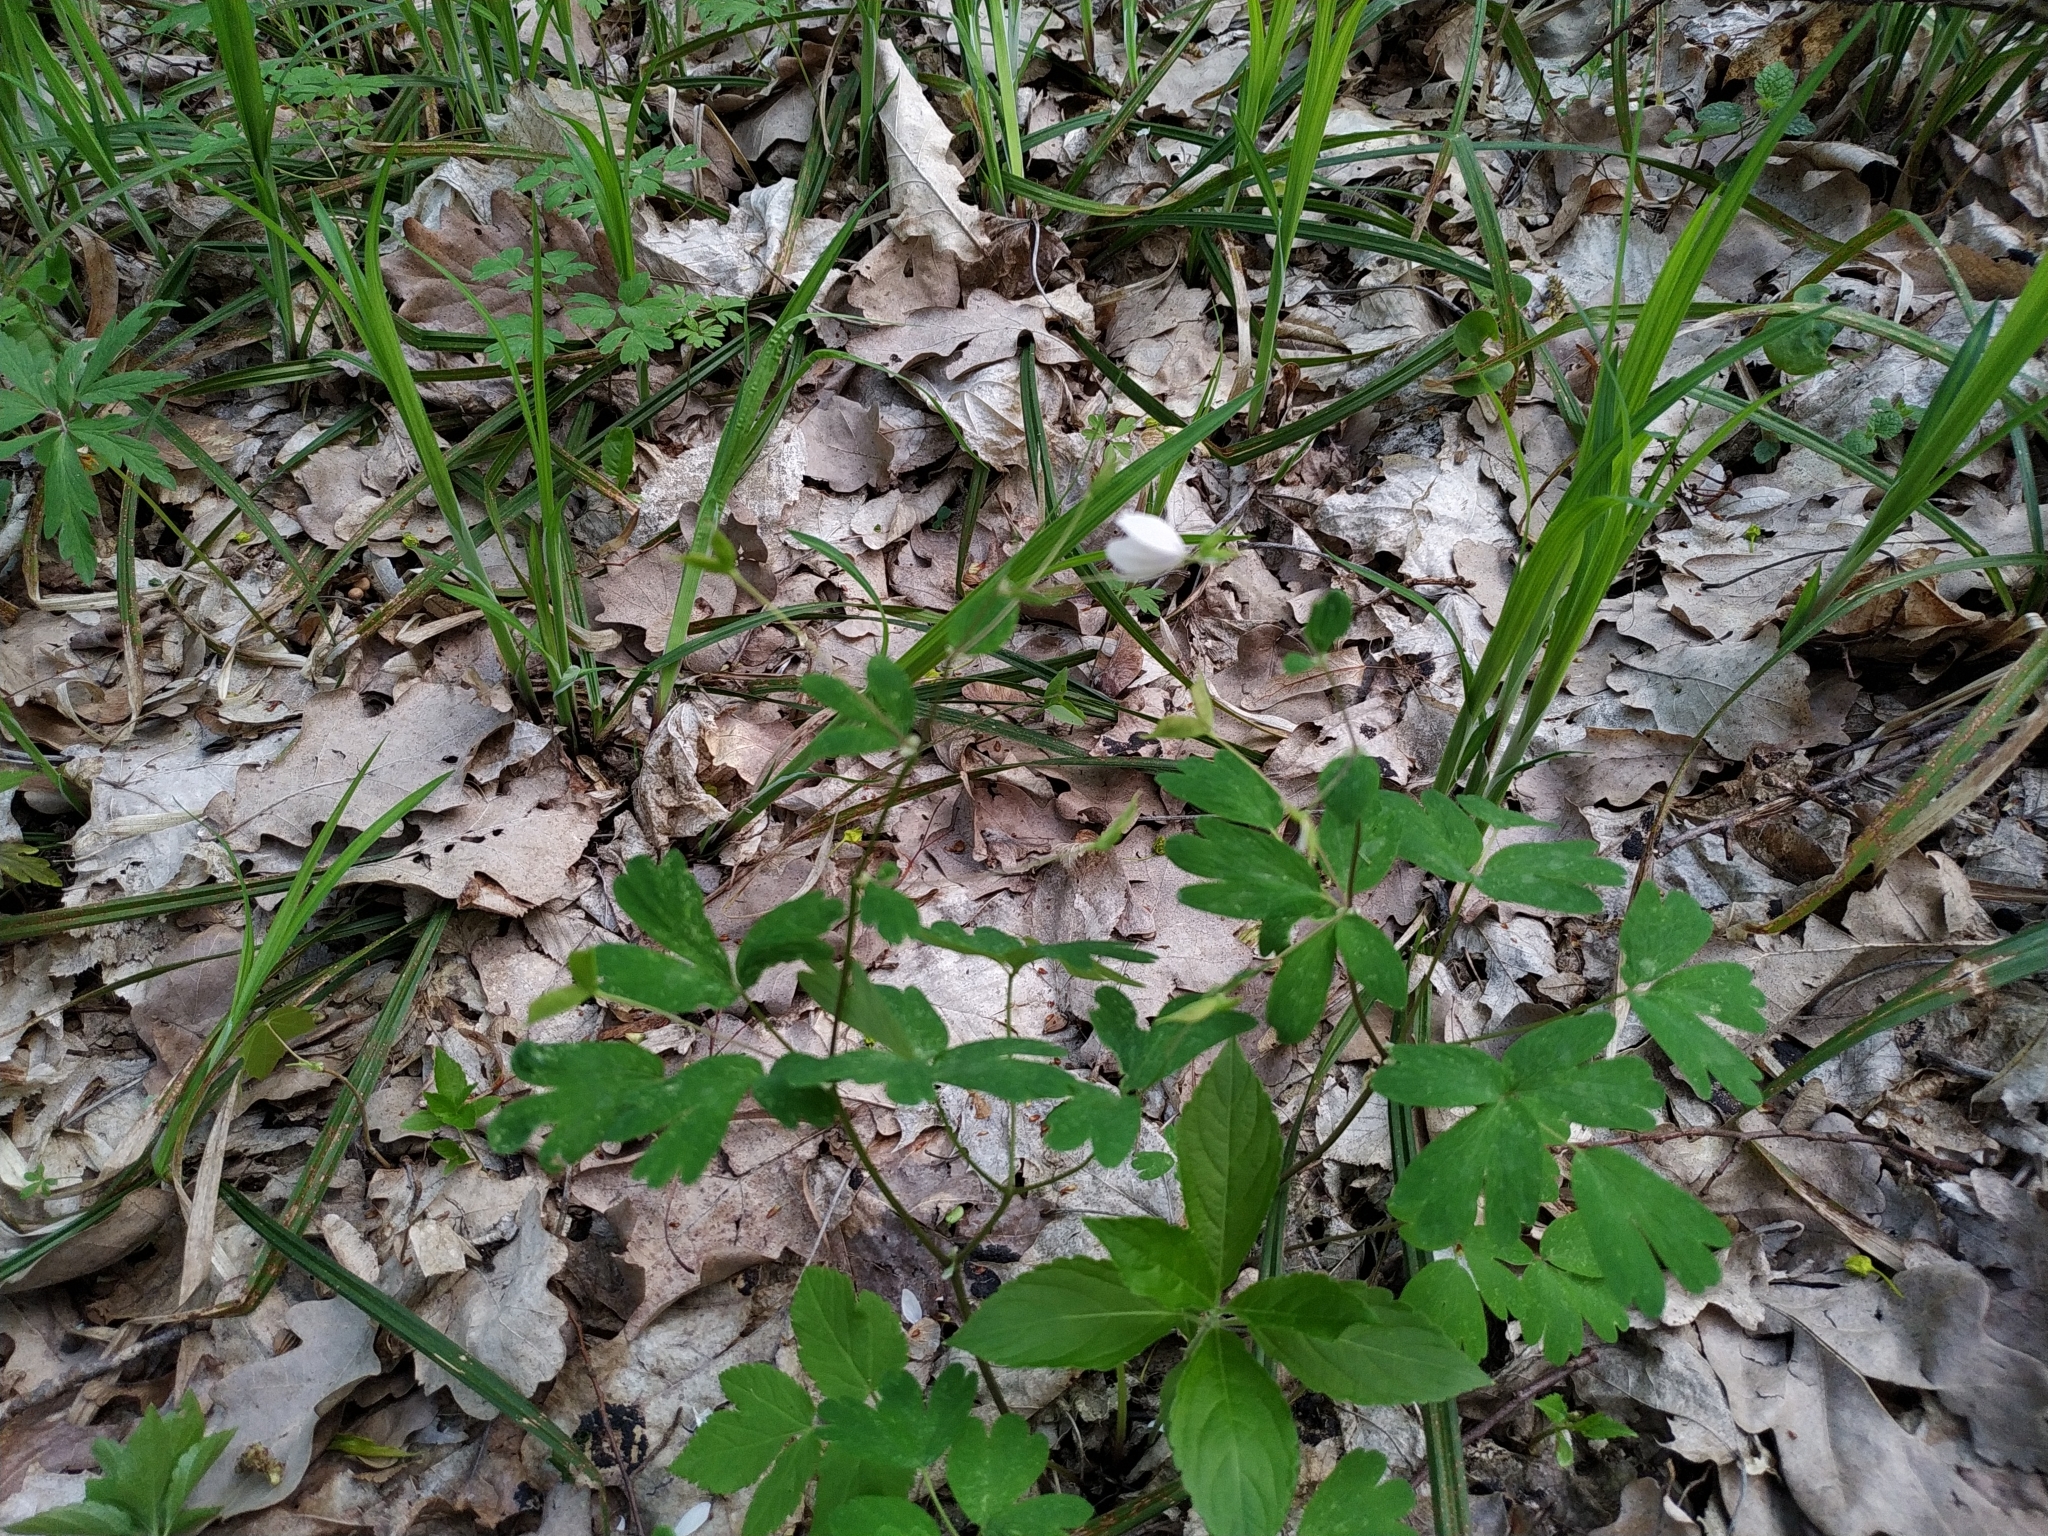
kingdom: Plantae
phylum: Tracheophyta
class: Magnoliopsida
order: Ranunculales
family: Ranunculaceae
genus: Isopyrum
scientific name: Isopyrum thalictroides
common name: Isopyrum
